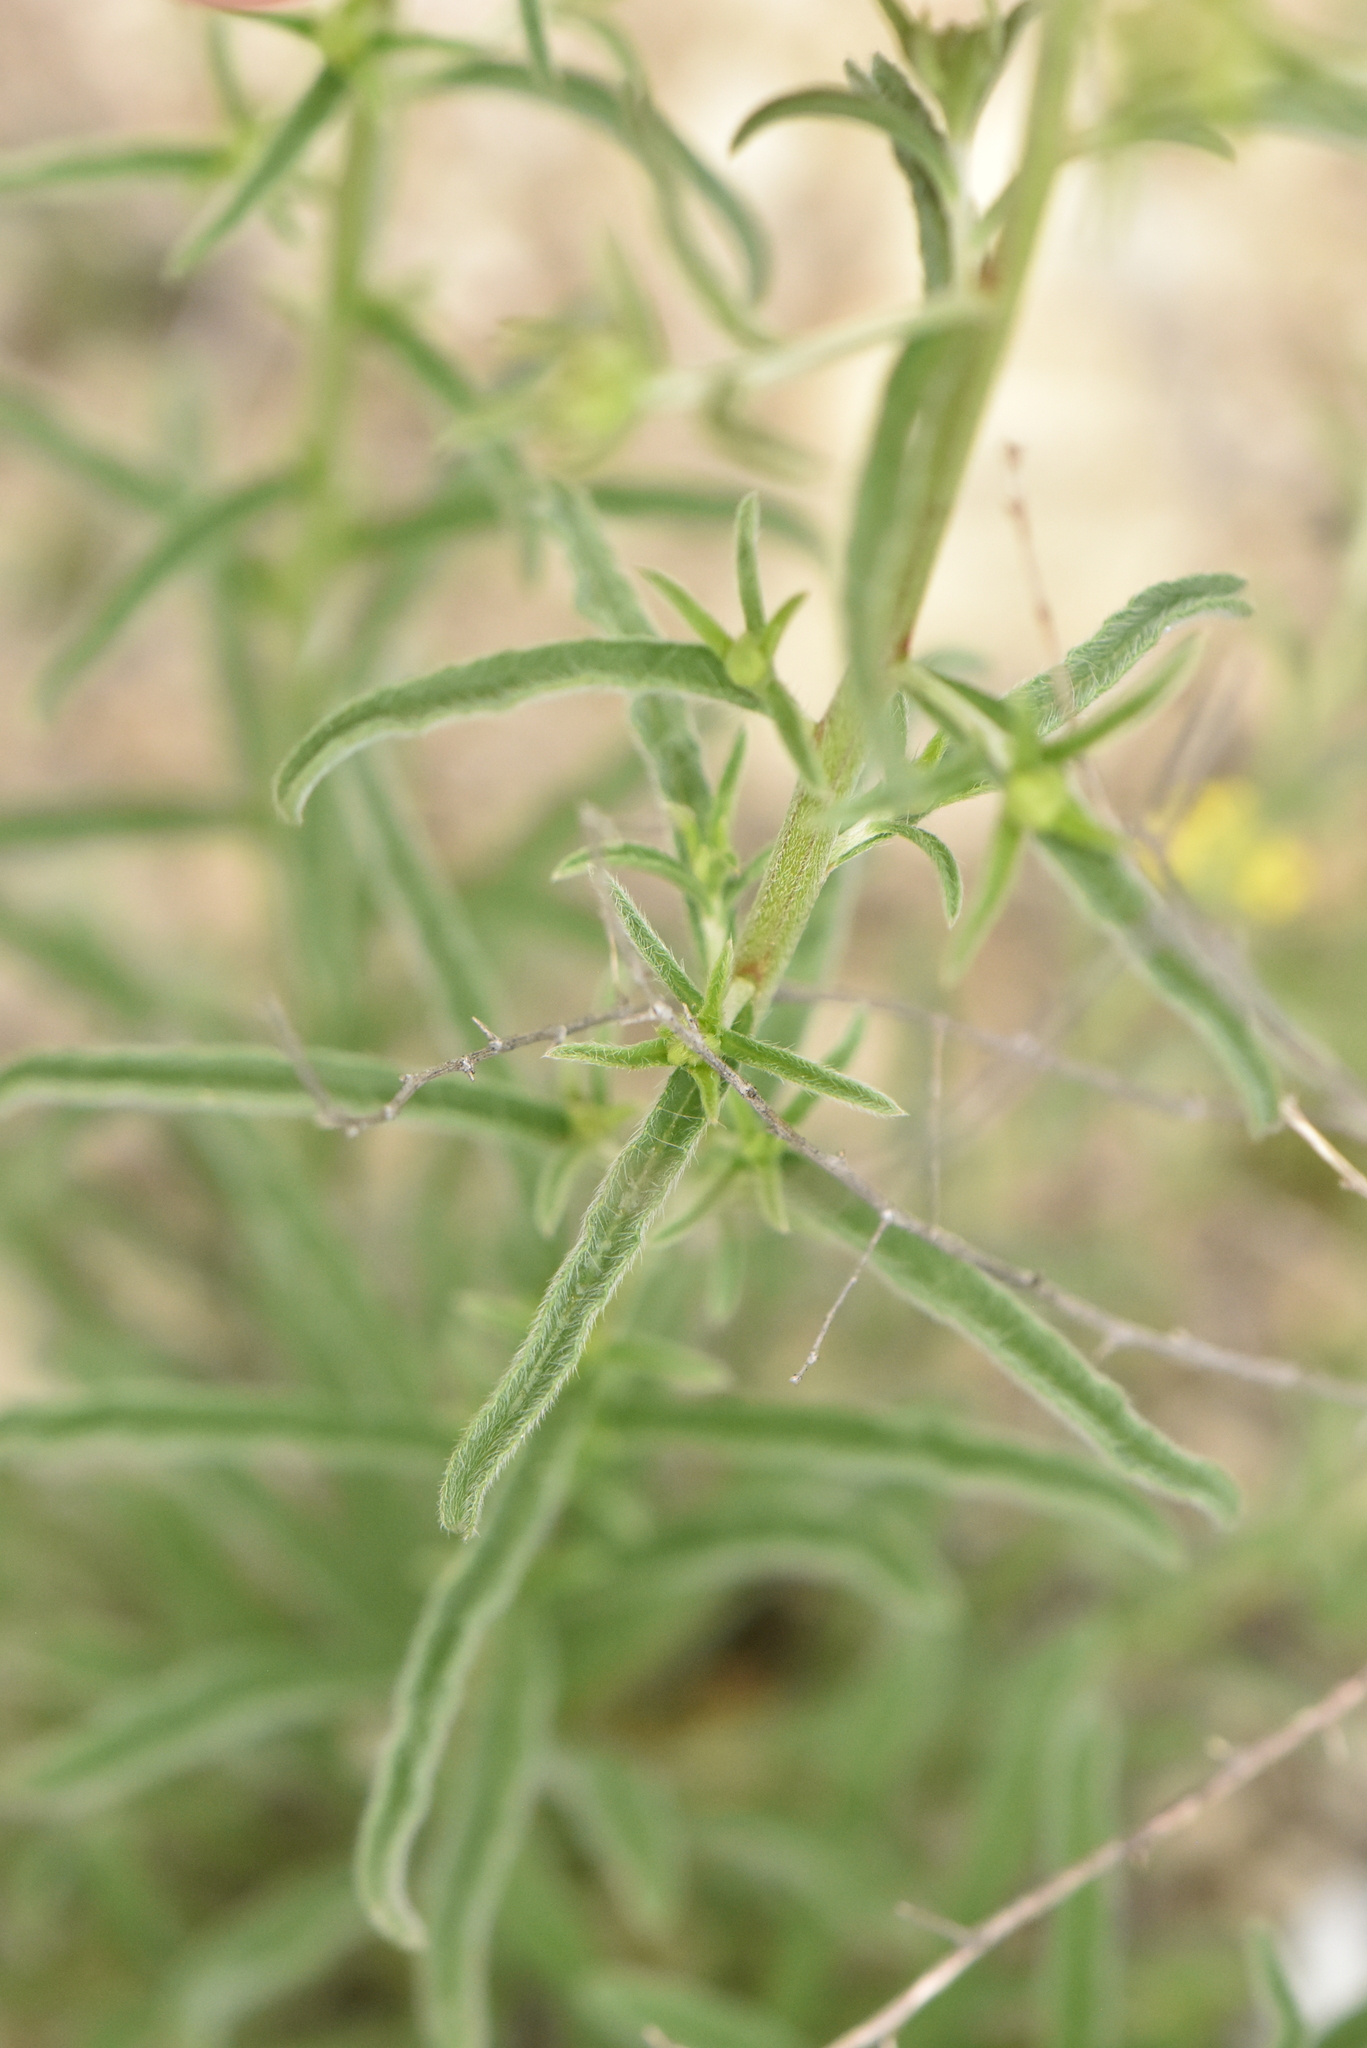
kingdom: Plantae
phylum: Tracheophyta
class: Magnoliopsida
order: Boraginales
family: Boraginaceae
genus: Lappula
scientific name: Lappula barbata
